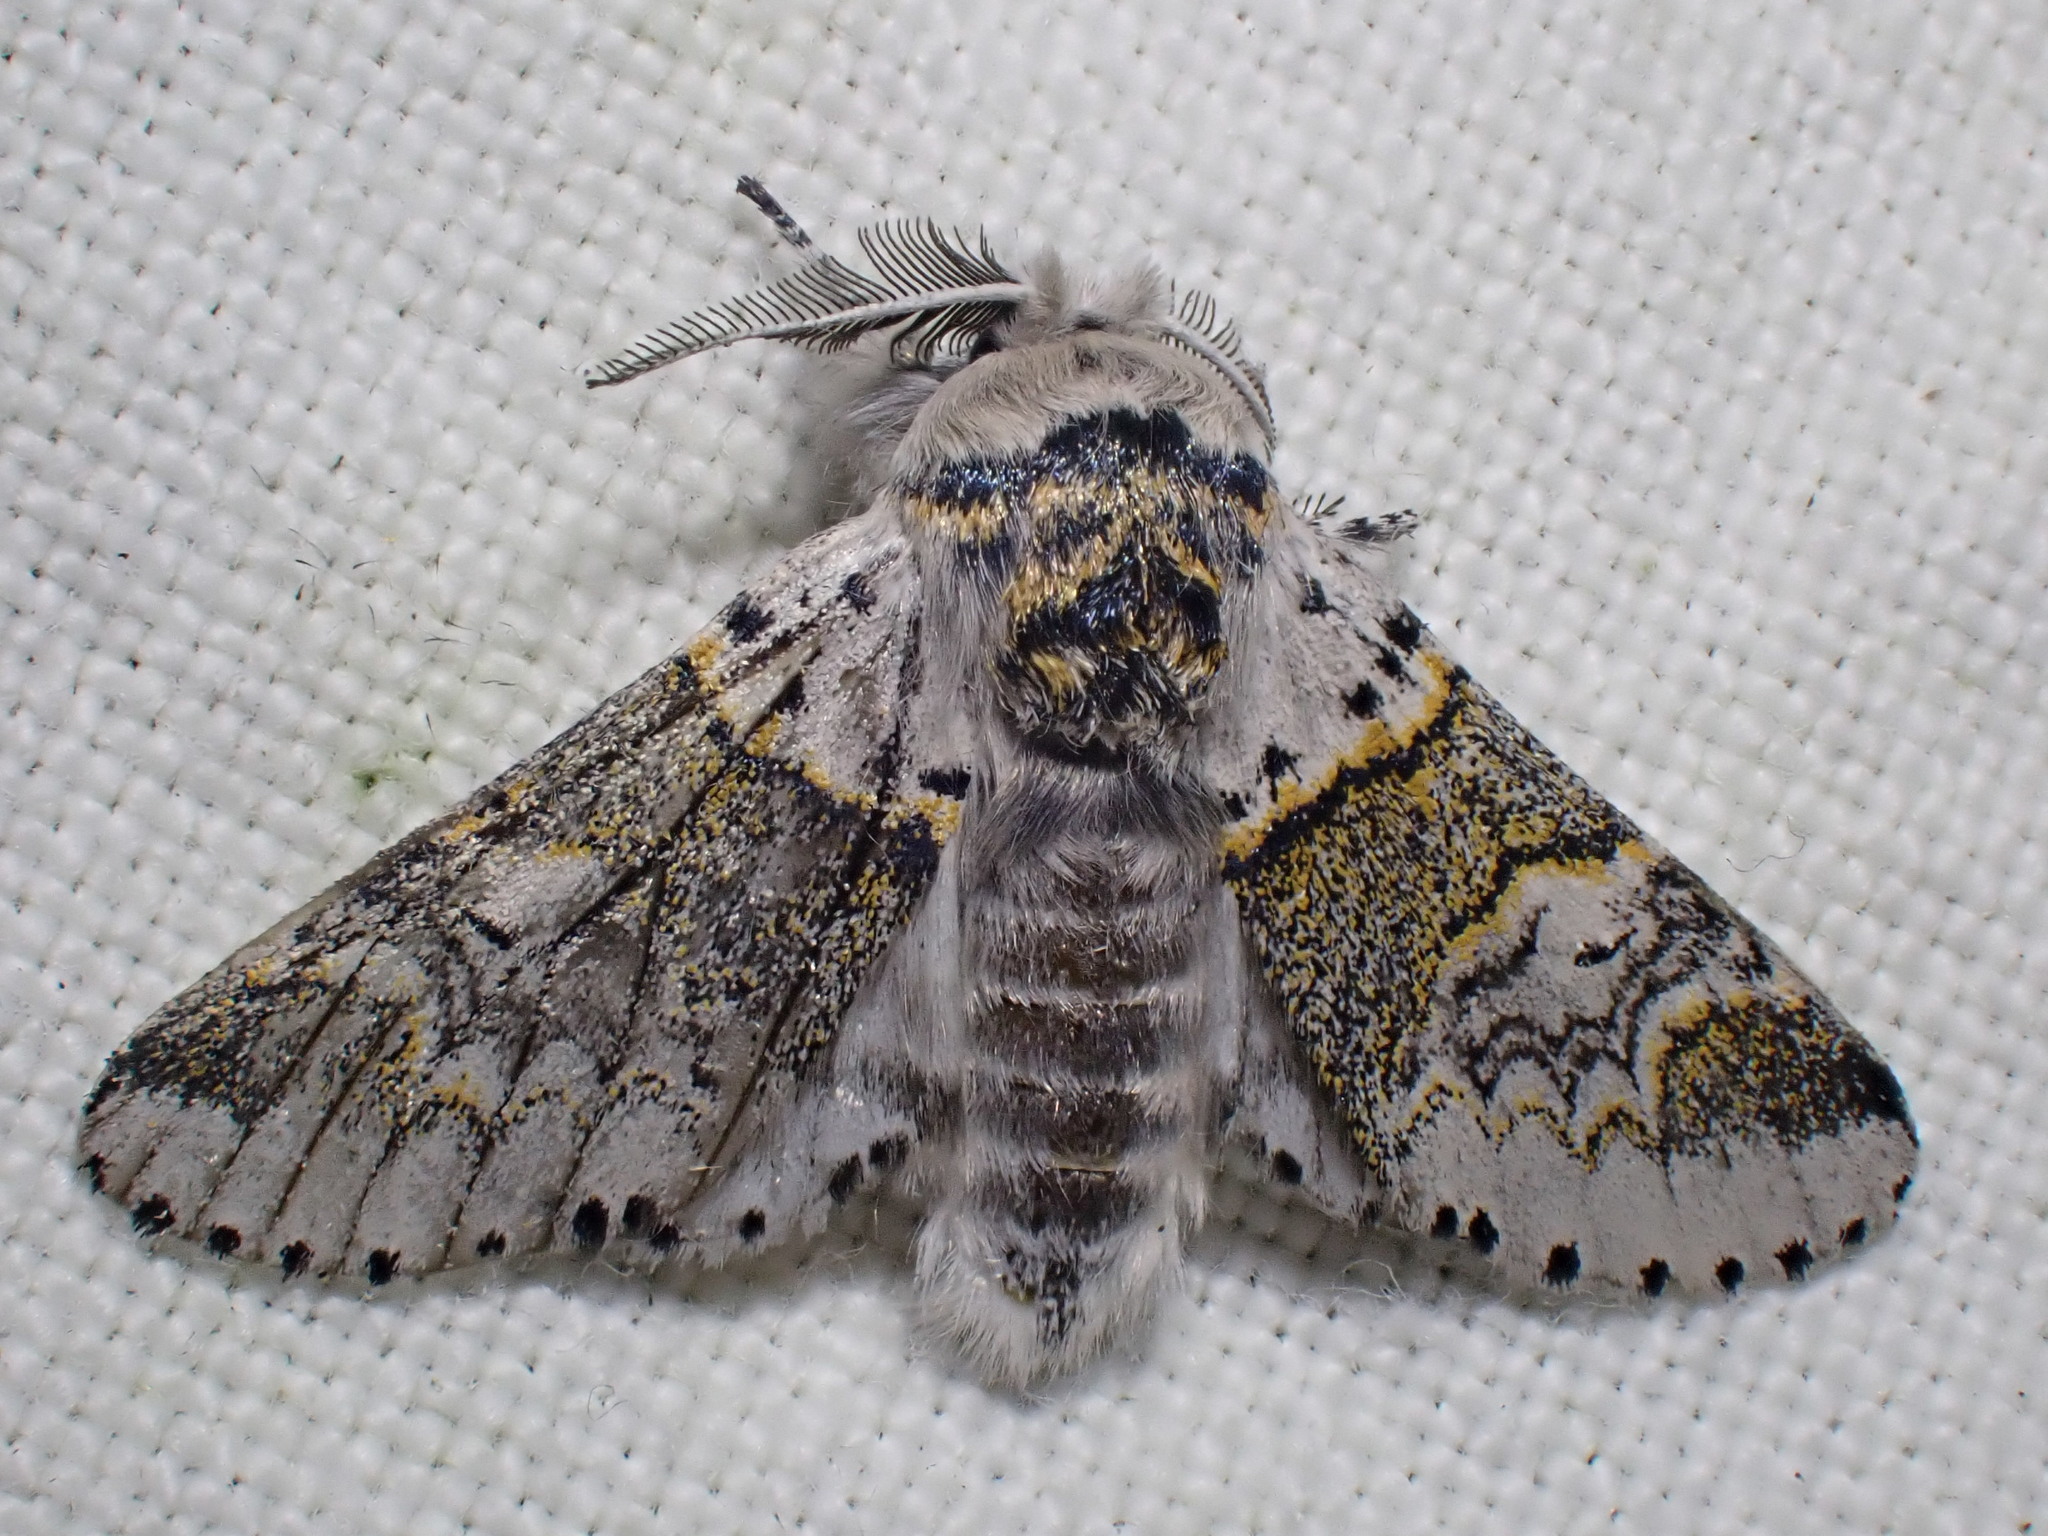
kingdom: Animalia
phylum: Arthropoda
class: Insecta
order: Lepidoptera
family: Notodontidae
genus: Furcula
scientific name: Furcula furcula
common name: Sallow kitten
